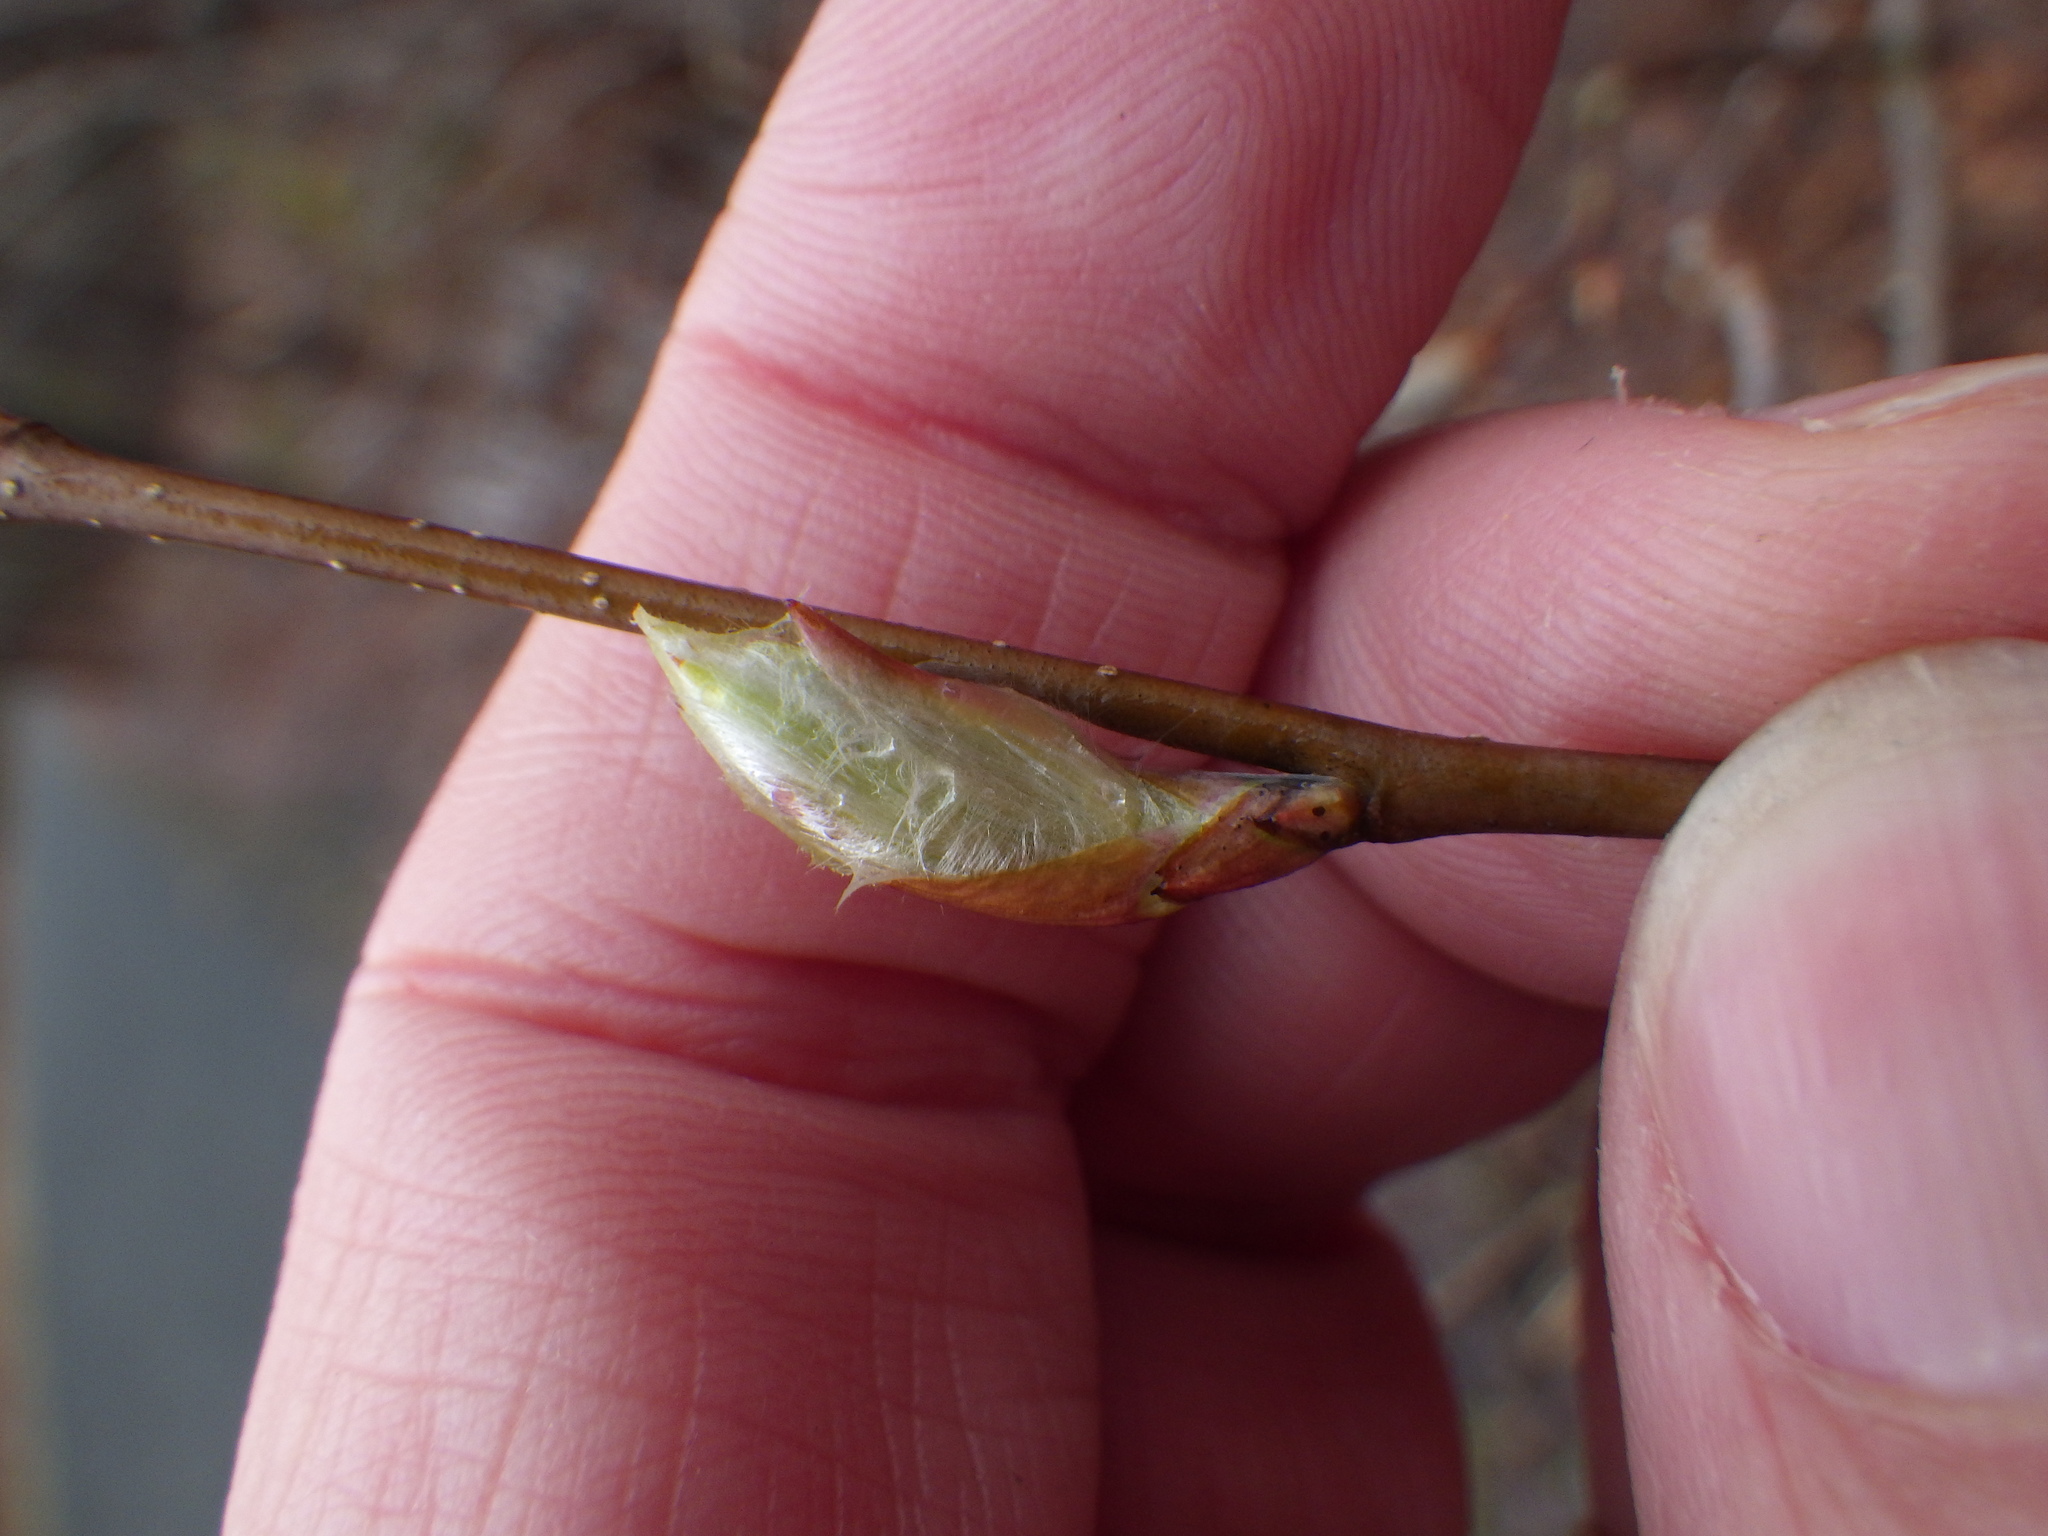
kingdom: Plantae
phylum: Tracheophyta
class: Magnoliopsida
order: Fagales
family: Fagaceae
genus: Fagus
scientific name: Fagus grandifolia
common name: American beech
